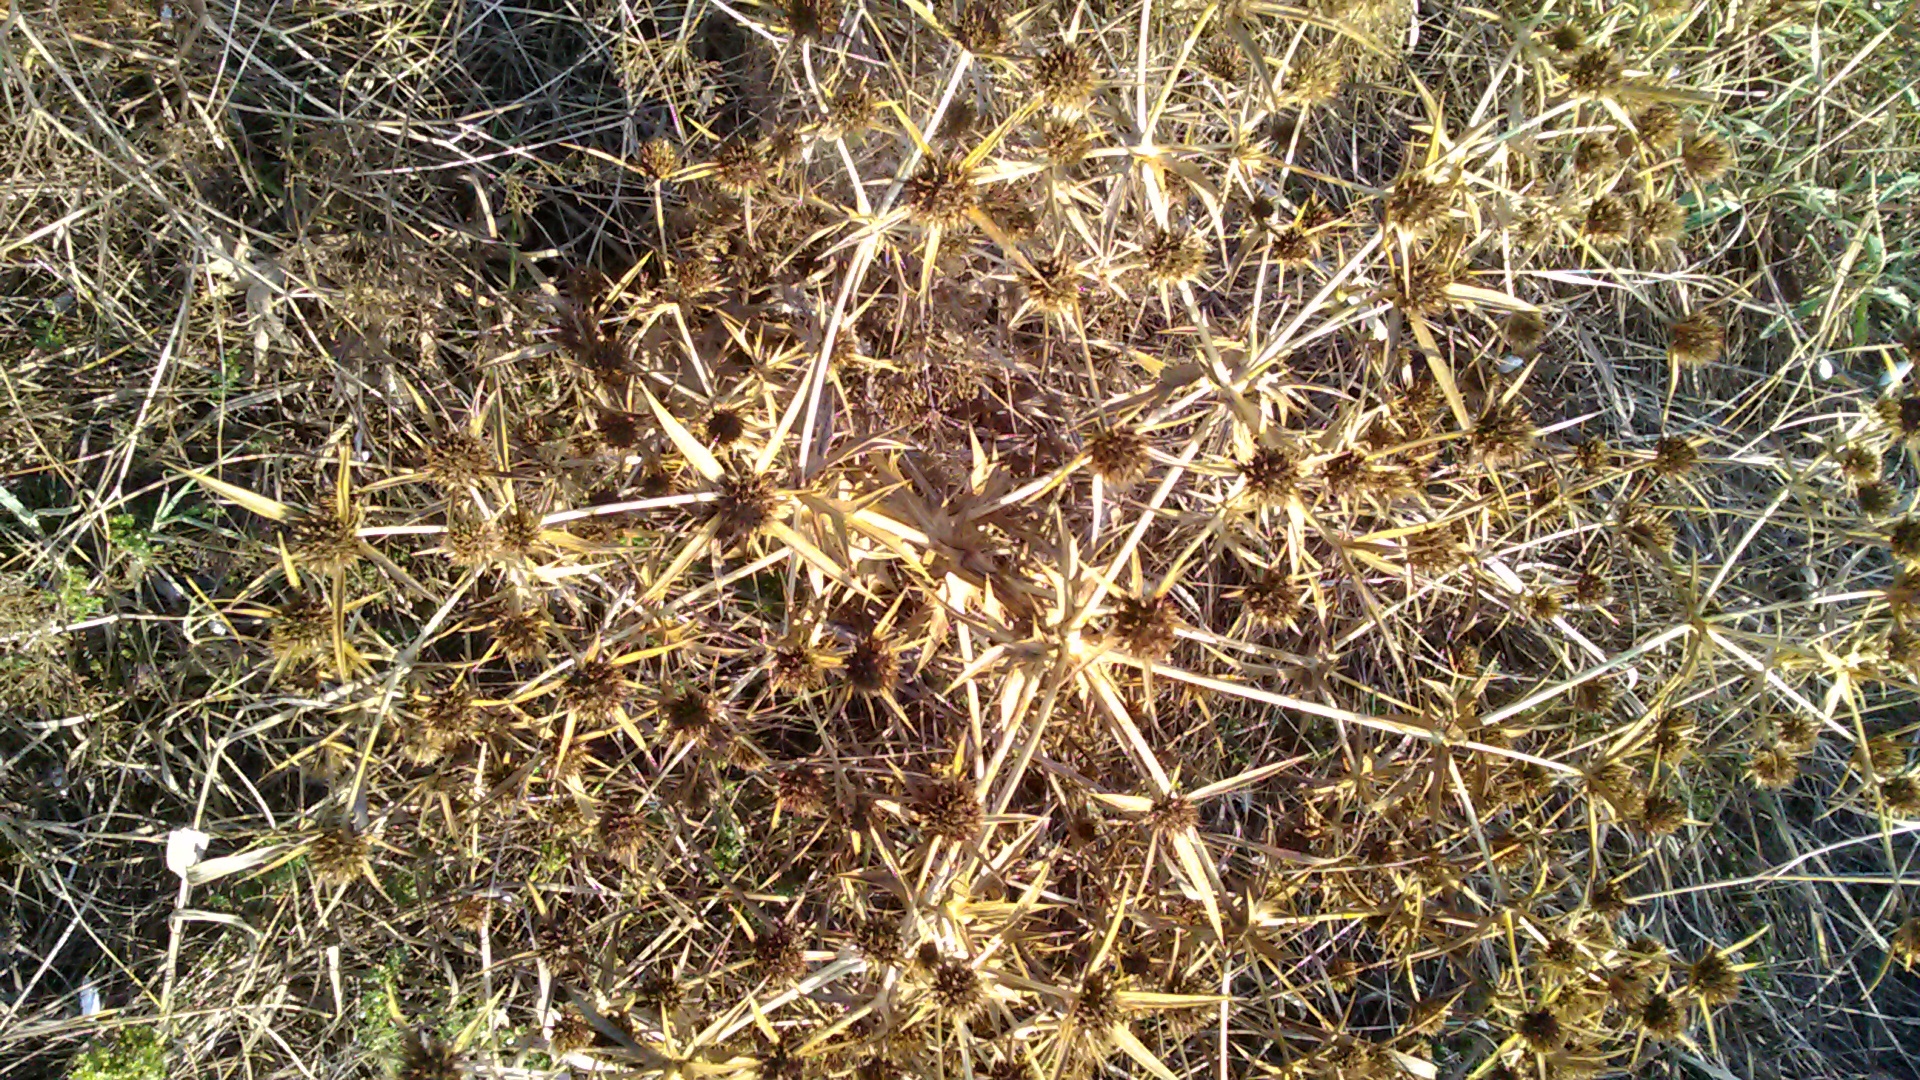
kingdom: Plantae
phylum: Tracheophyta
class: Magnoliopsida
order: Apiales
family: Apiaceae
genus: Eryngium
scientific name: Eryngium campestre
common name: Field eryngo
